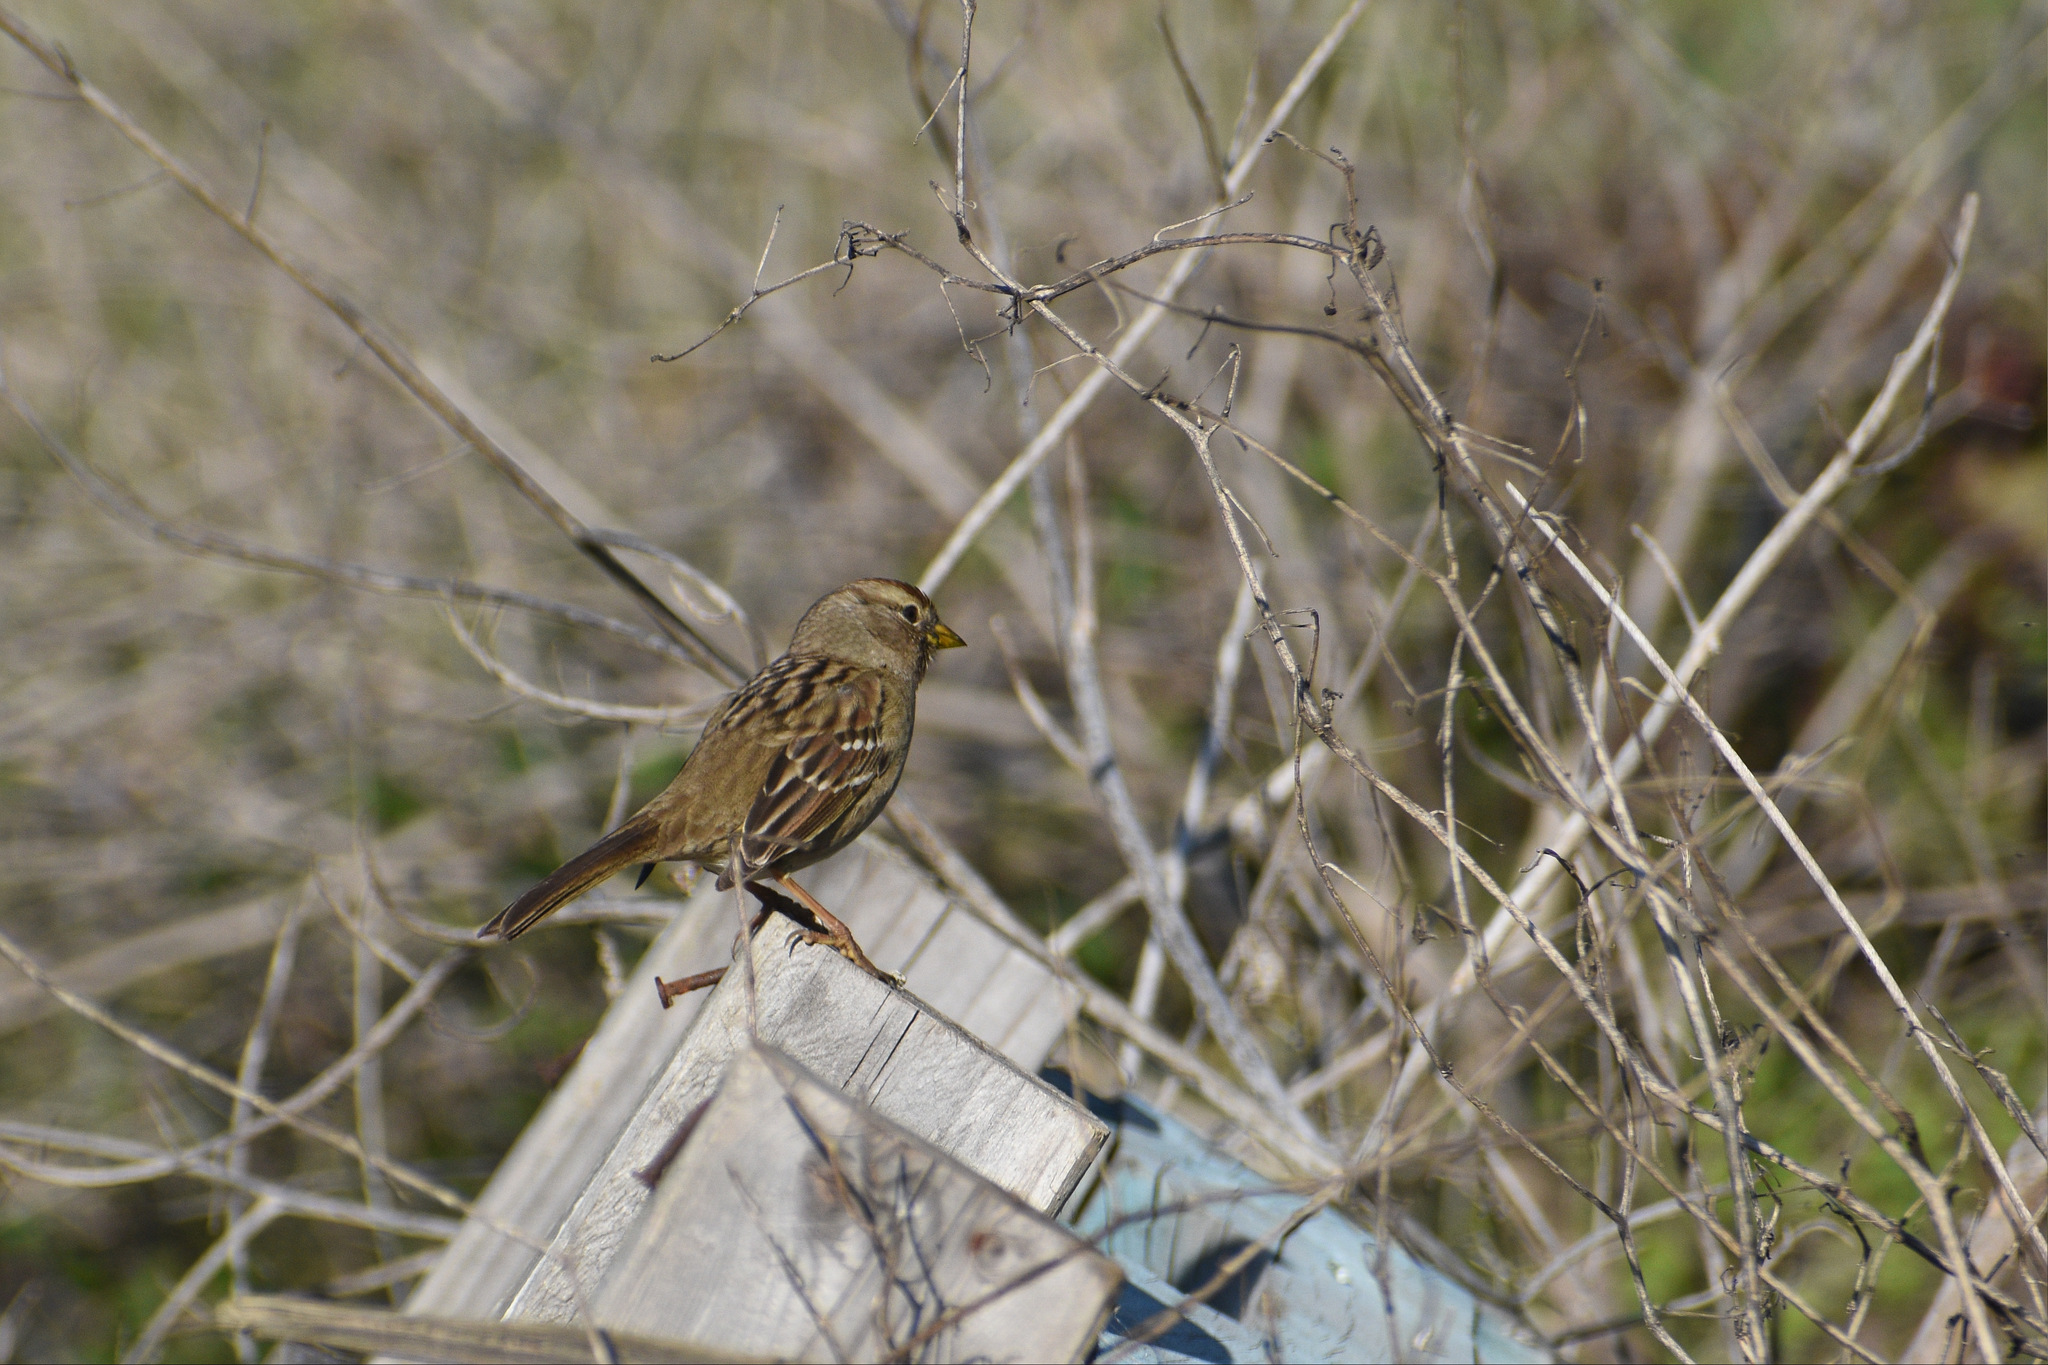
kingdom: Animalia
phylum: Chordata
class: Aves
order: Passeriformes
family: Passerellidae
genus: Zonotrichia
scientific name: Zonotrichia leucophrys
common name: White-crowned sparrow
